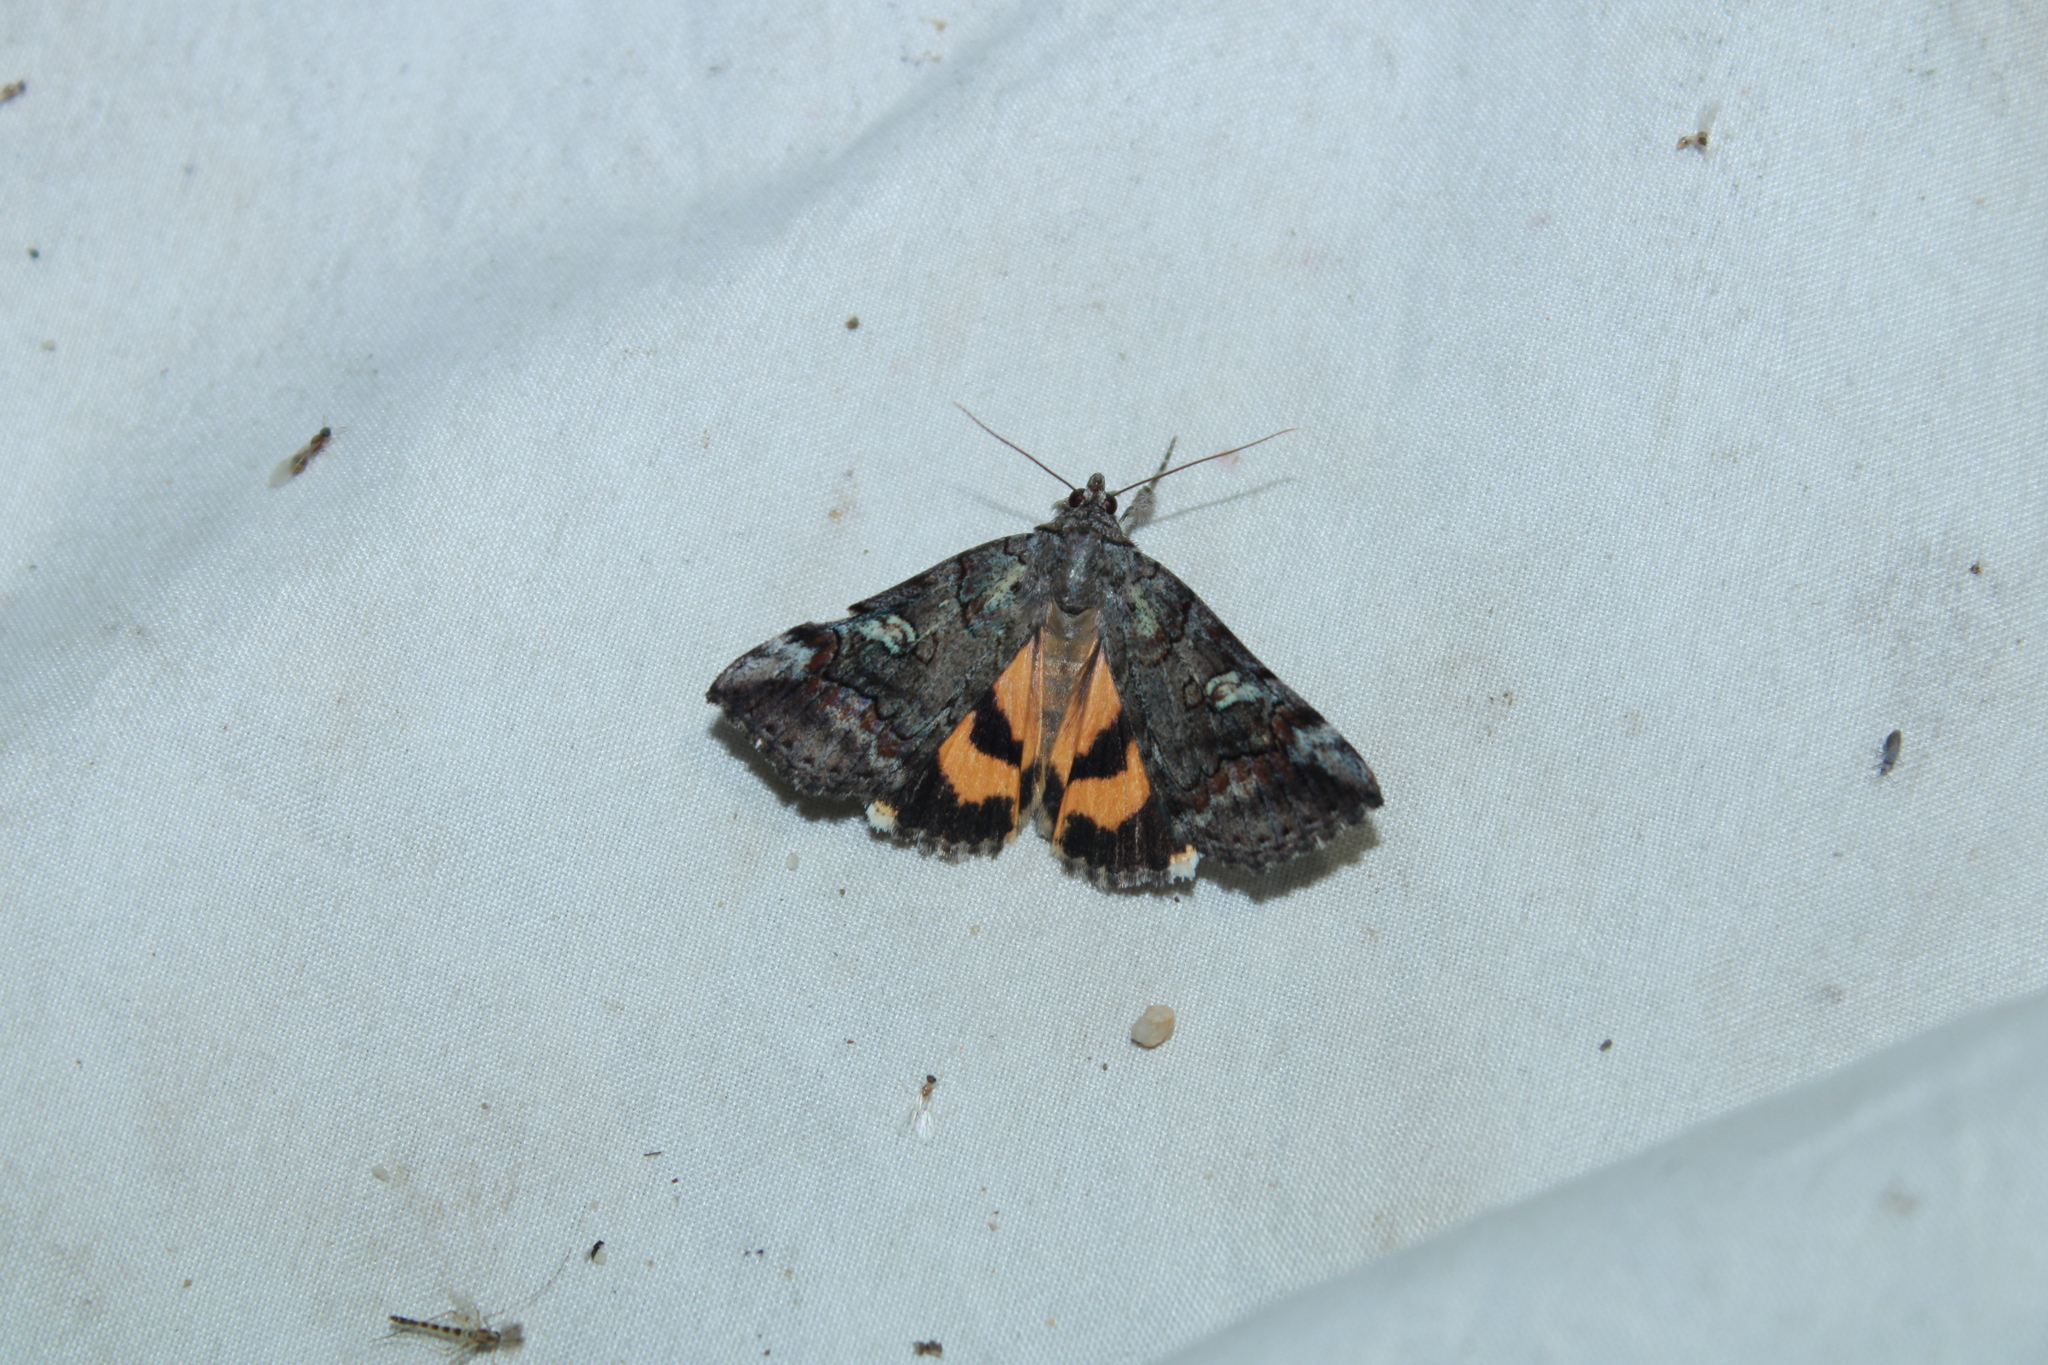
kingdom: Animalia
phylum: Arthropoda
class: Insecta
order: Lepidoptera
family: Erebidae
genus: Catocala
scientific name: Catocala similis
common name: Similar underwing
